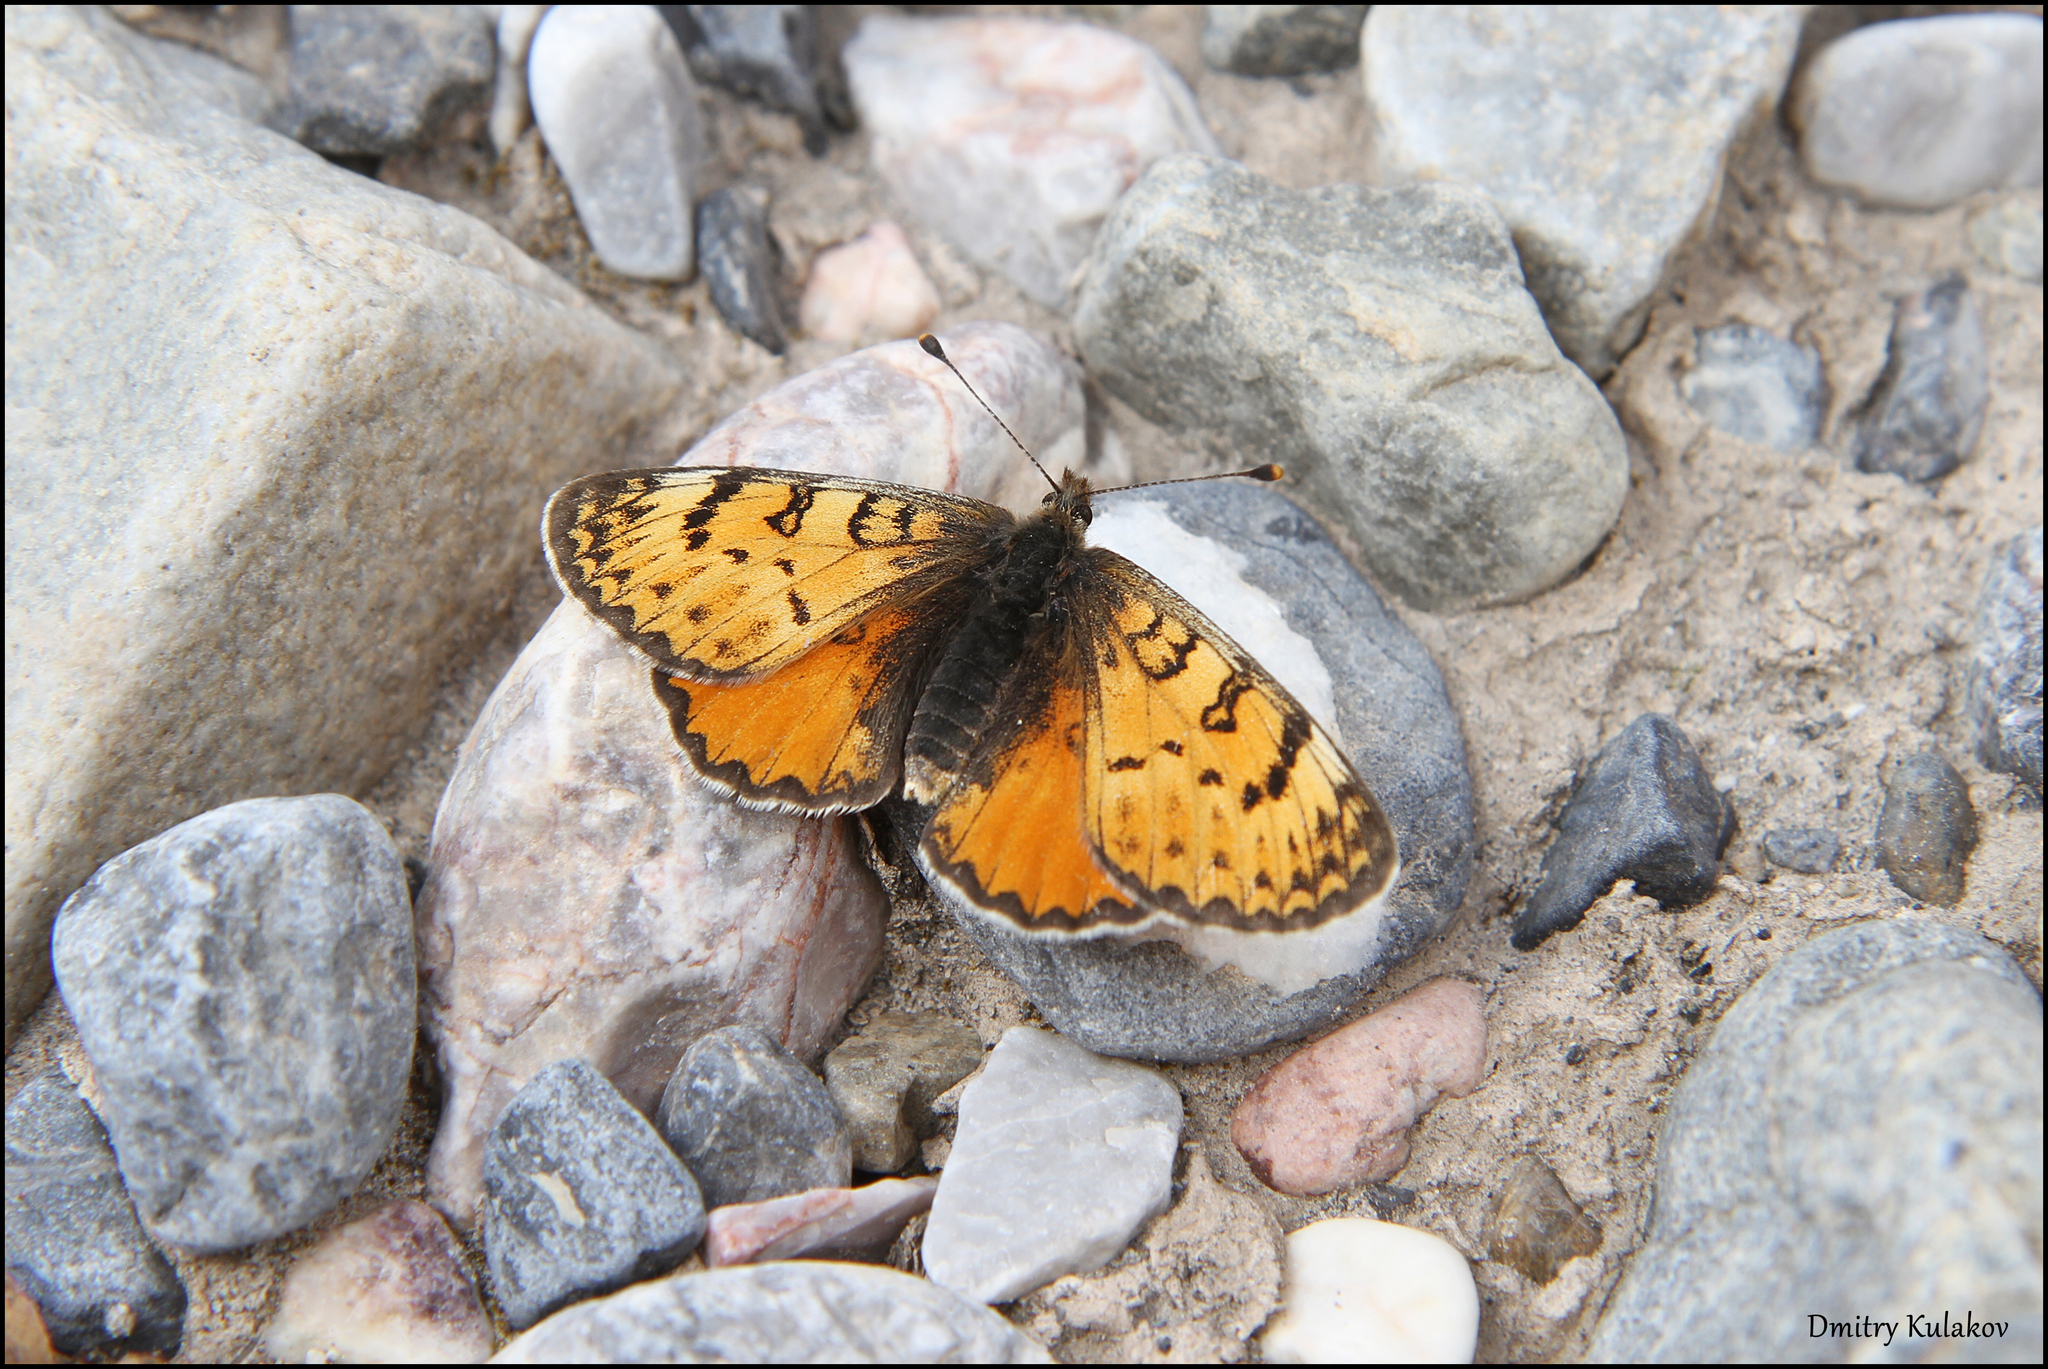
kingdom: Animalia
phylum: Arthropoda
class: Insecta
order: Lepidoptera
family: Nymphalidae
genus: Melitaea
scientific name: Melitaea fergana
